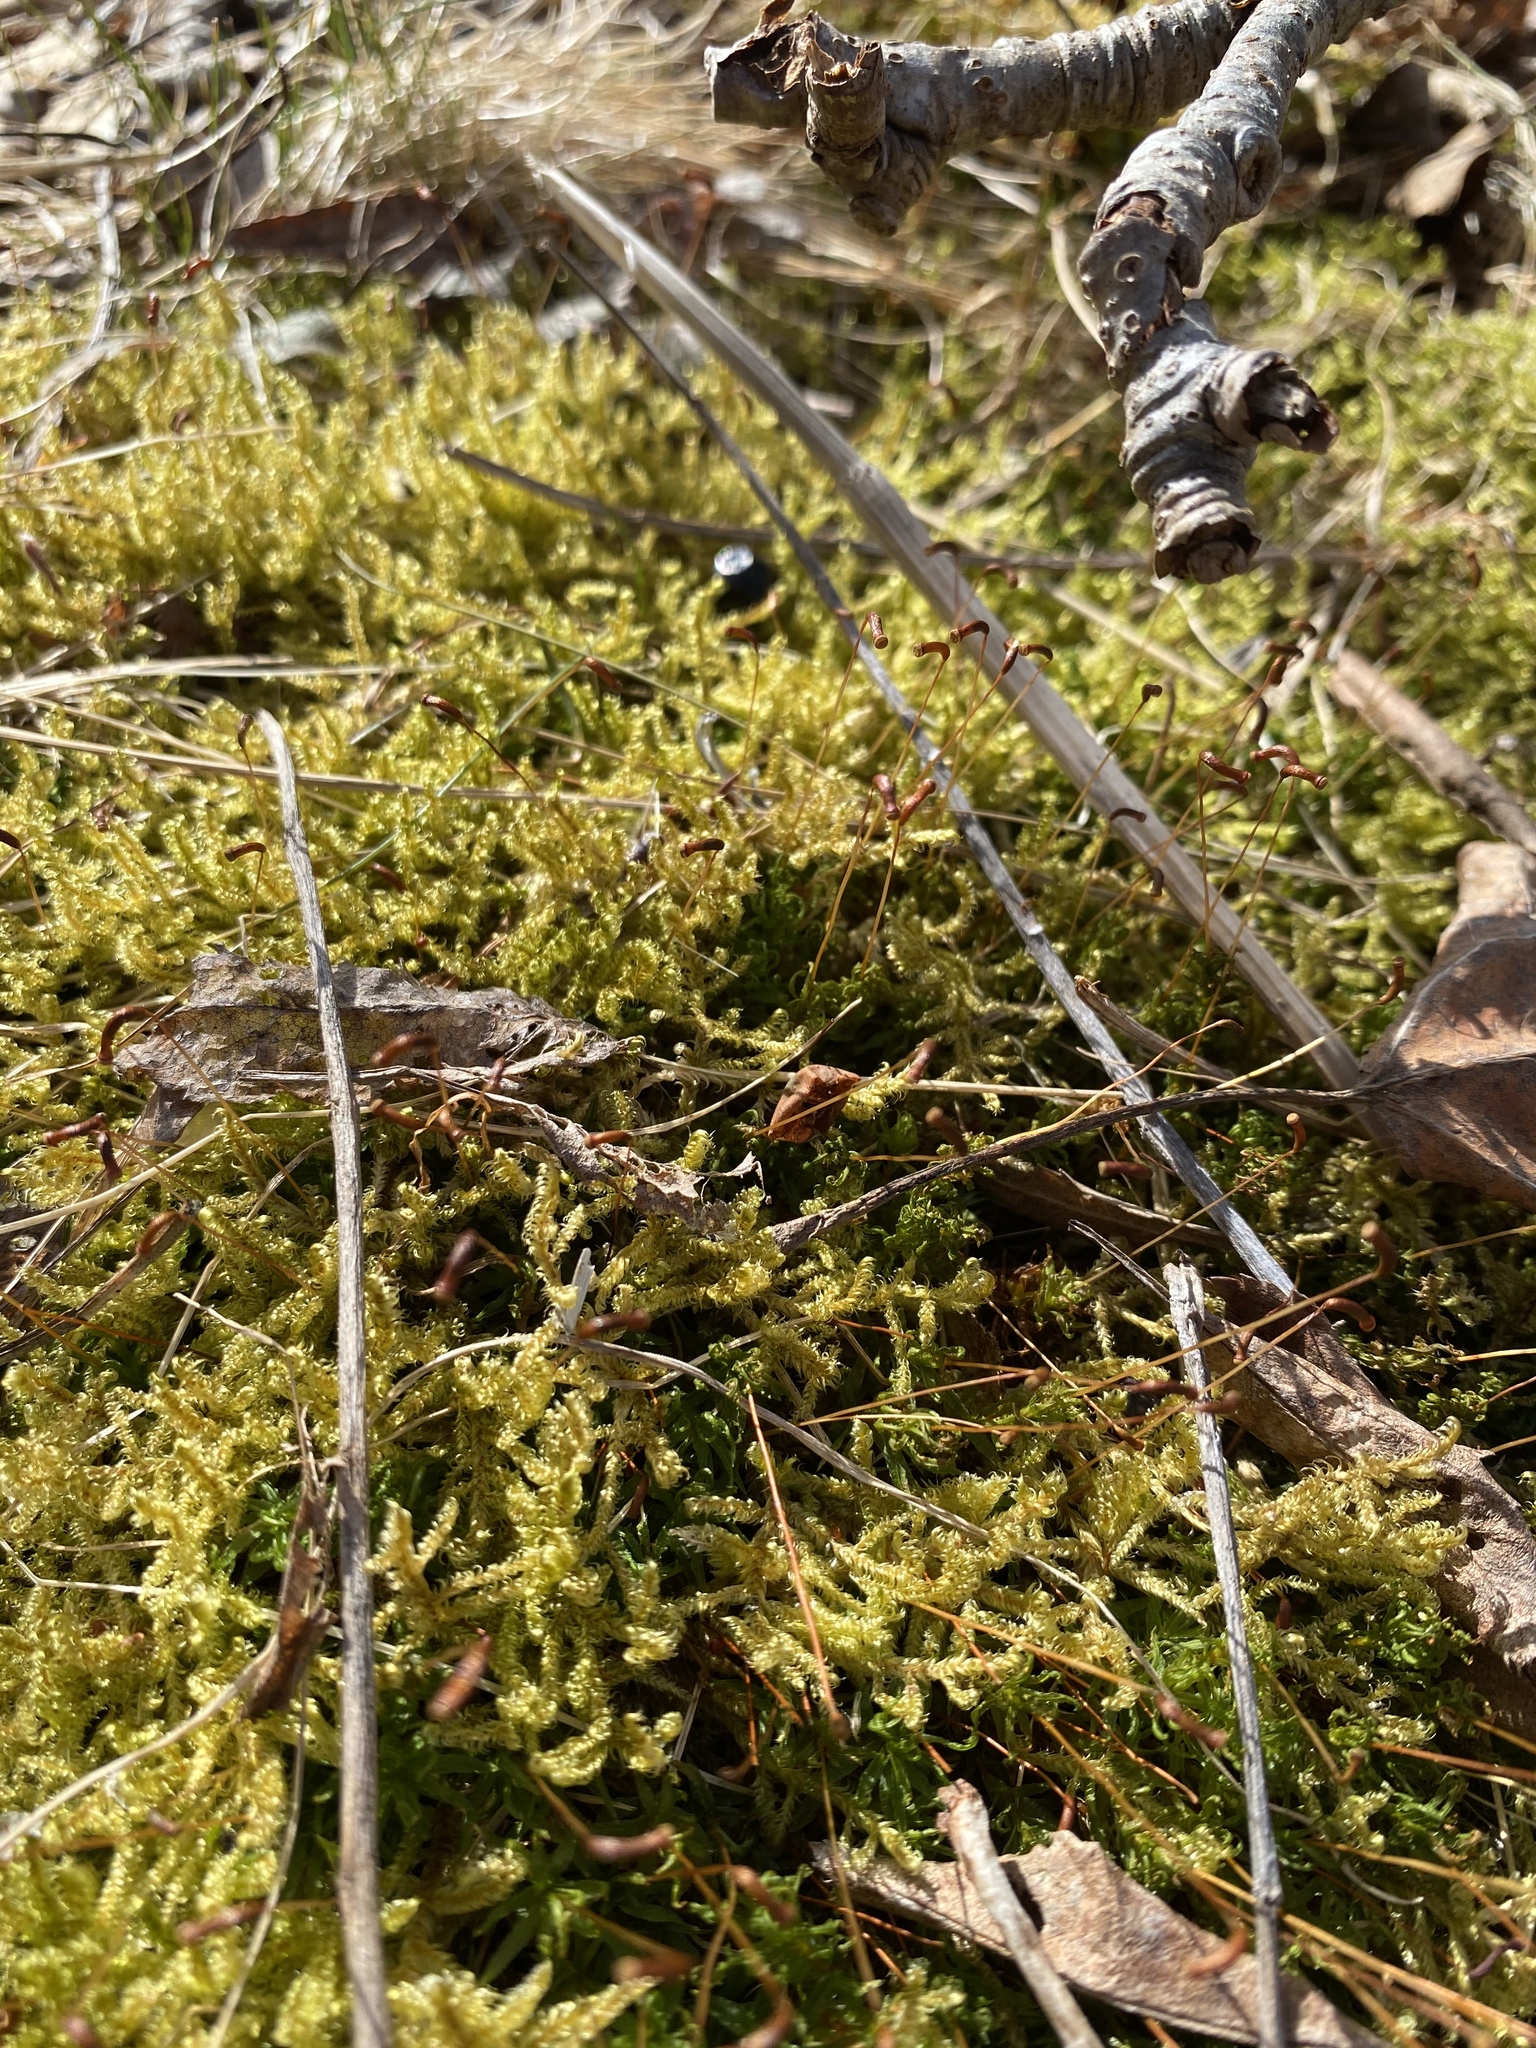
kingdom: Plantae
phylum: Bryophyta
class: Bryopsida
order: Hypnales
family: Scorpidiaceae
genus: Sanionia
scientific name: Sanionia uncinata
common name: Sickle moss
